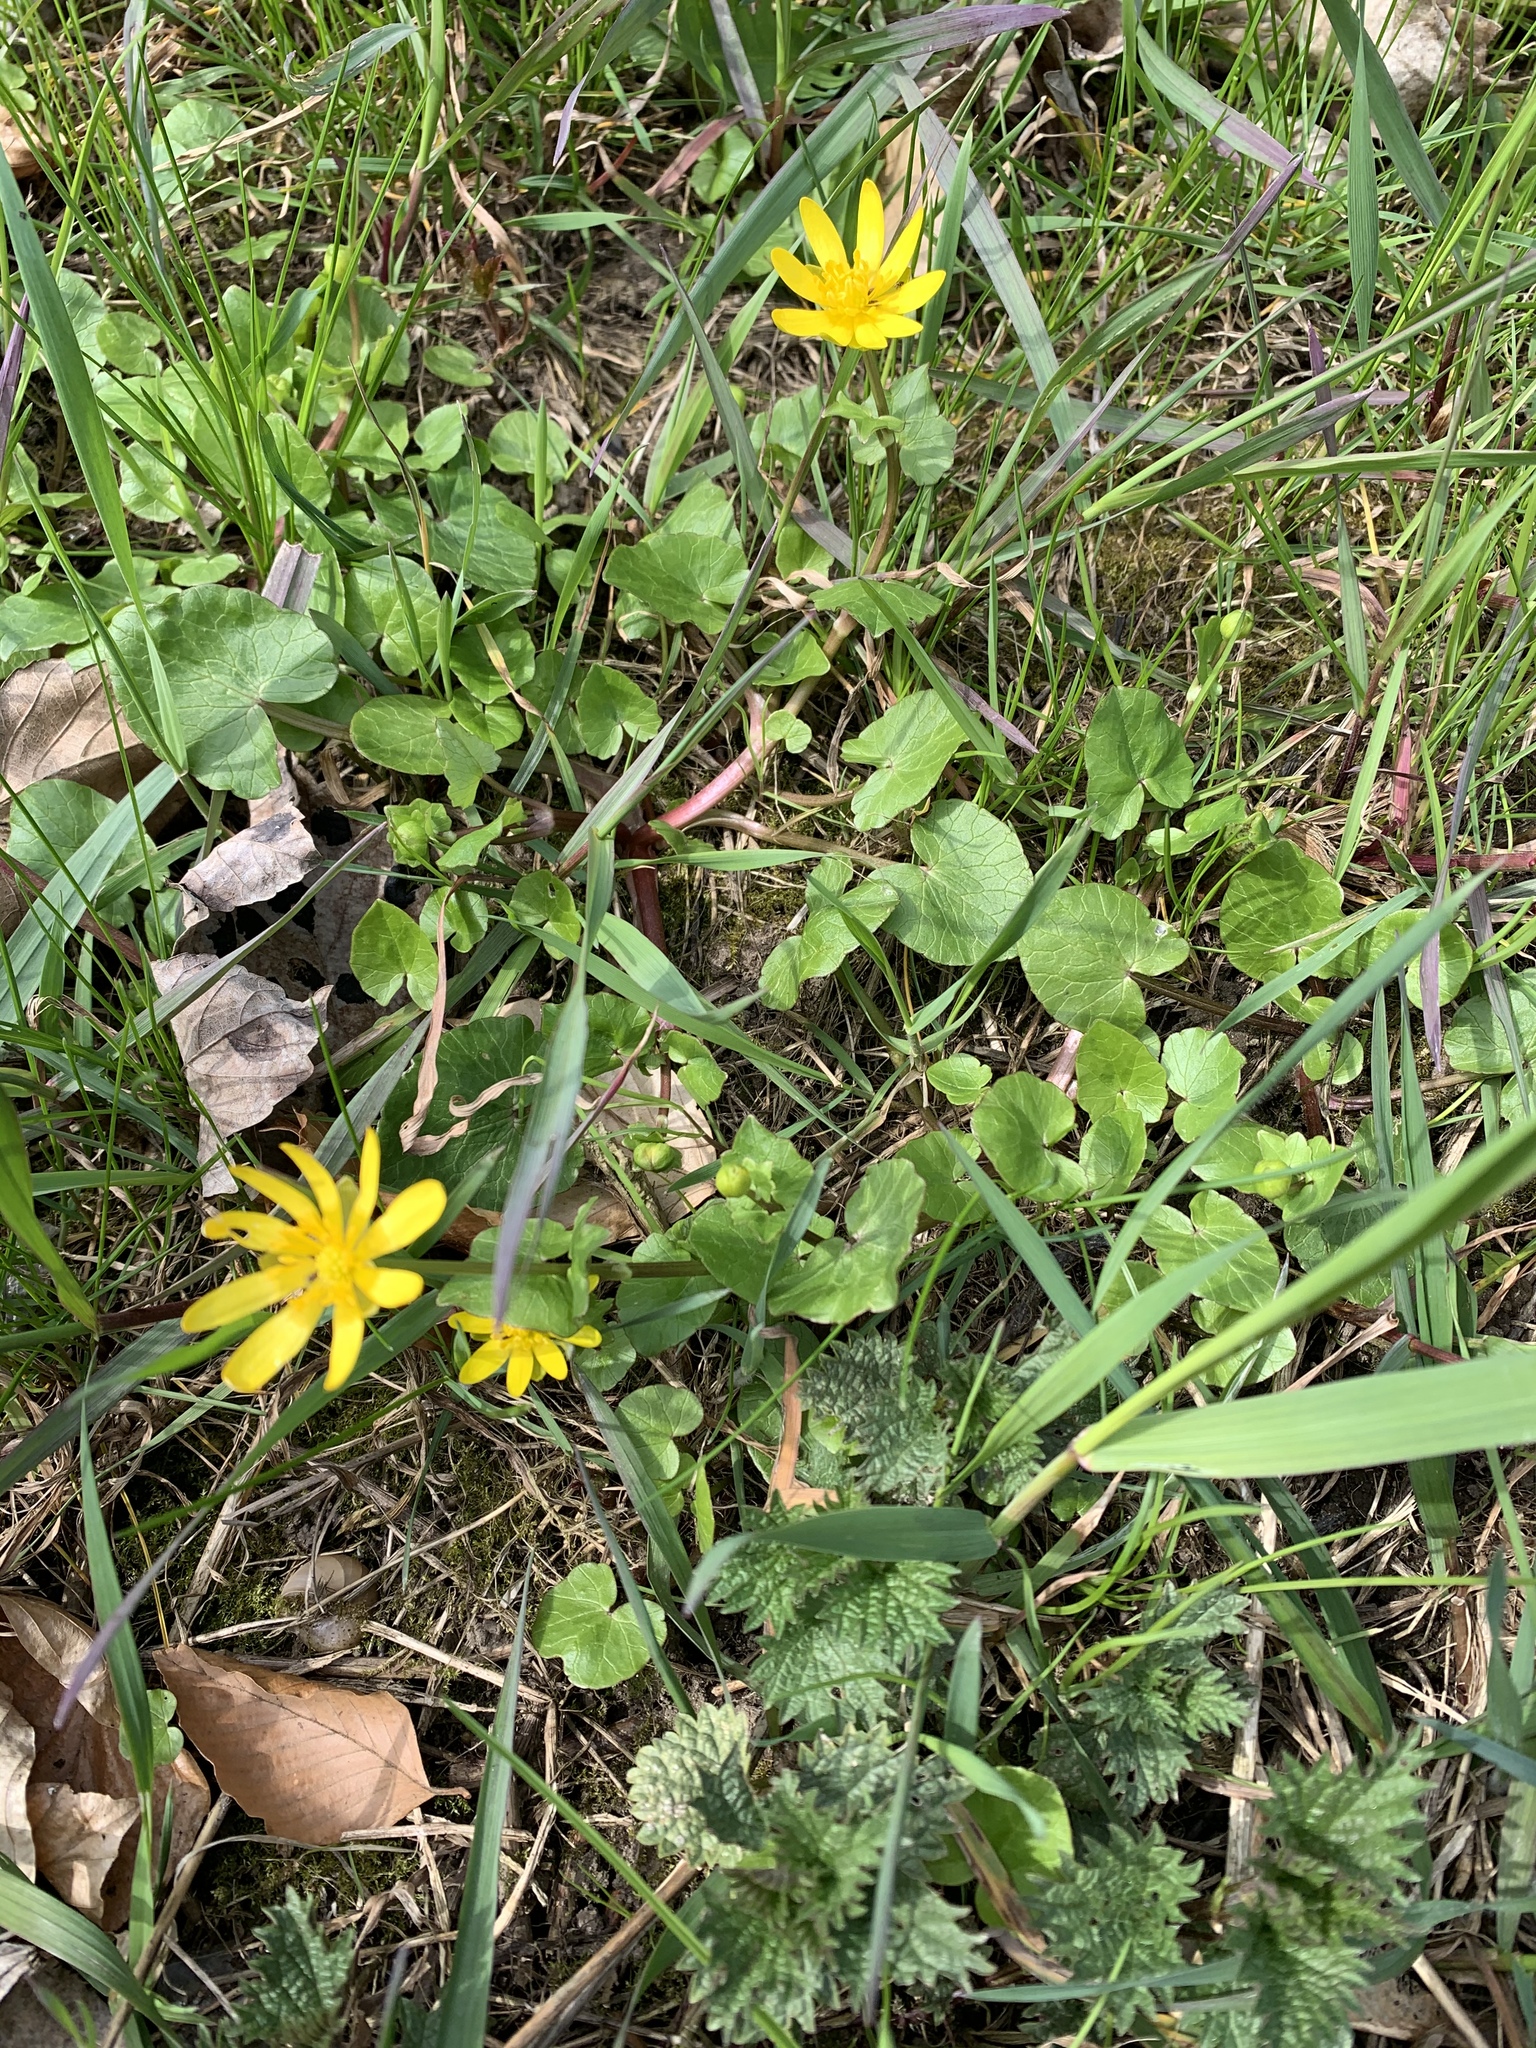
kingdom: Plantae
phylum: Tracheophyta
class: Magnoliopsida
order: Ranunculales
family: Ranunculaceae
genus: Ficaria
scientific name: Ficaria verna
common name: Lesser celandine
